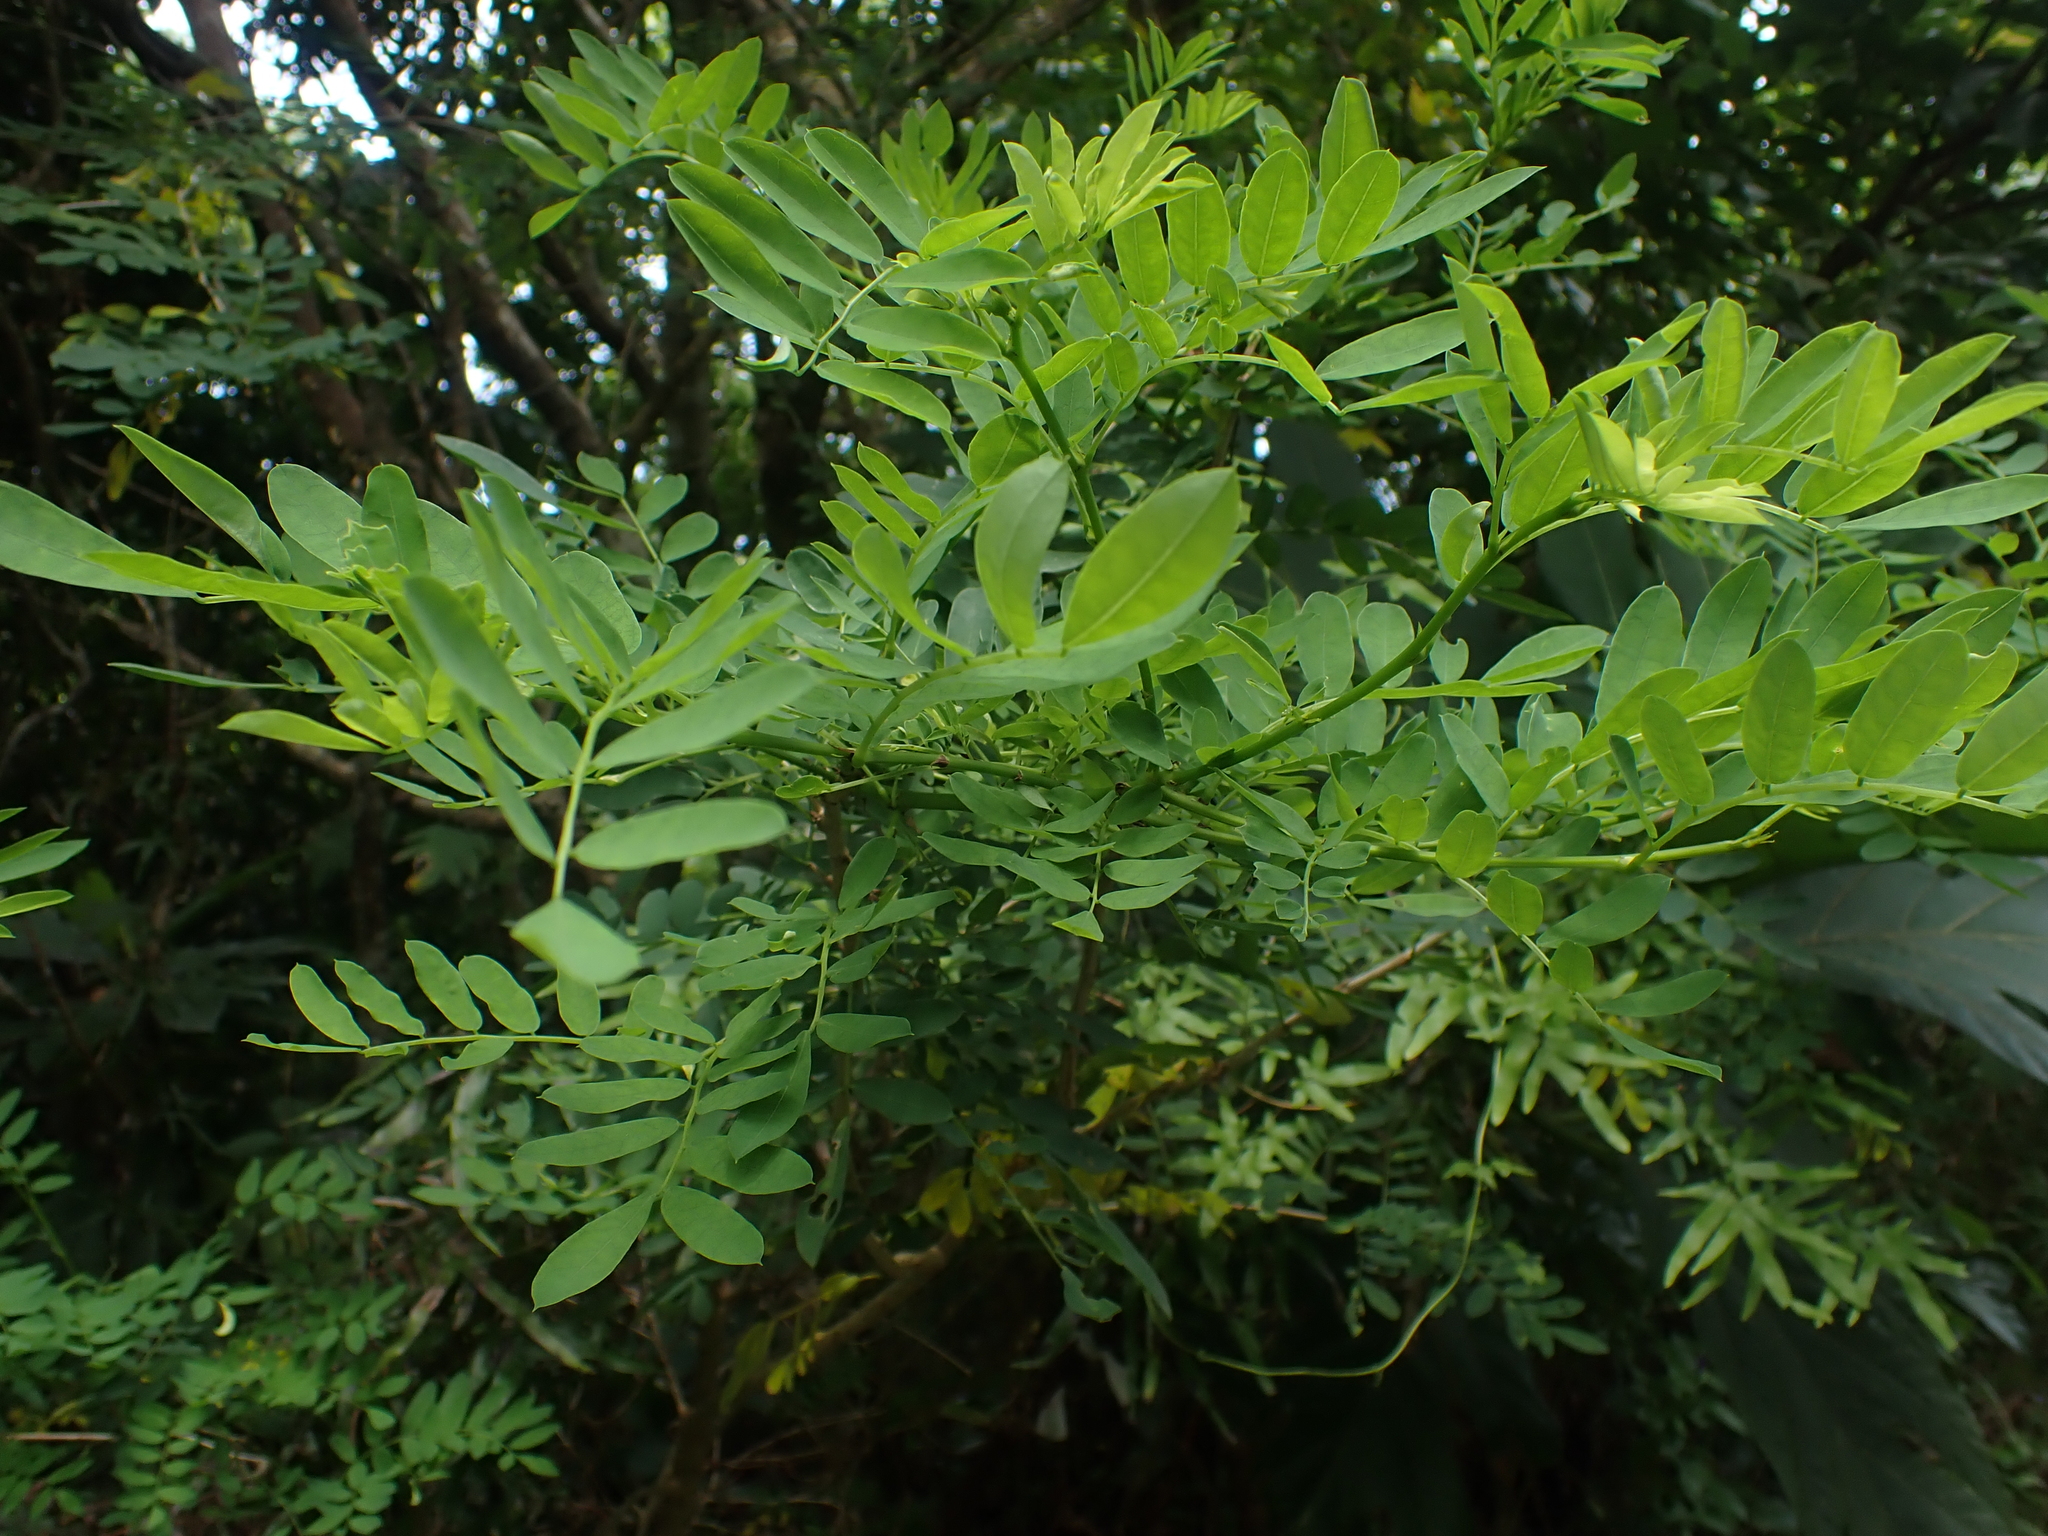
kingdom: Plantae
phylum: Tracheophyta
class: Magnoliopsida
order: Fabales
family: Fabaceae
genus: Ormocarpum
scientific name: Ormocarpum cochinchinense
